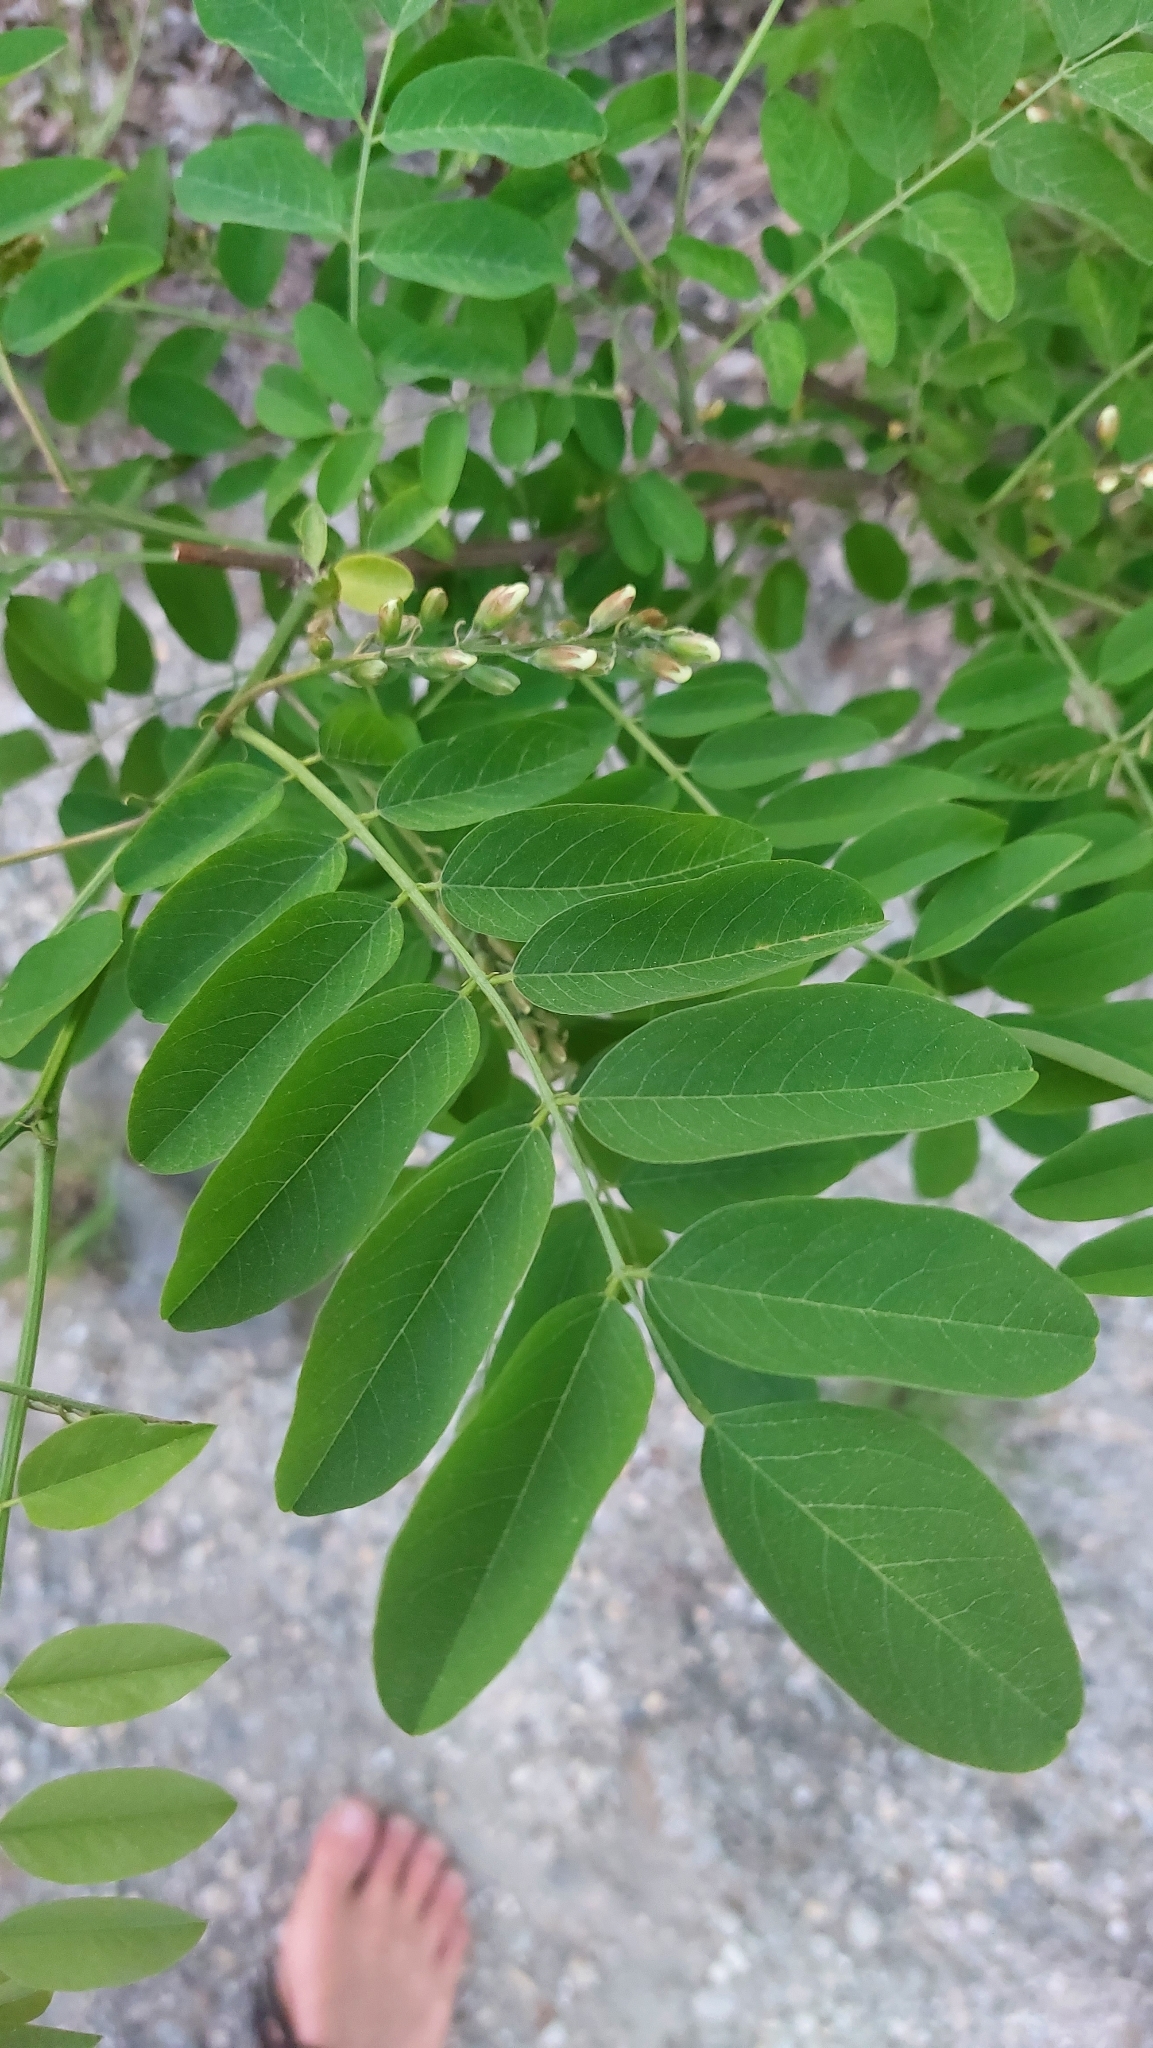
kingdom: Plantae
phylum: Tracheophyta
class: Magnoliopsida
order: Fabales
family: Fabaceae
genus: Robinia
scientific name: Robinia pseudoacacia
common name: Black locust
